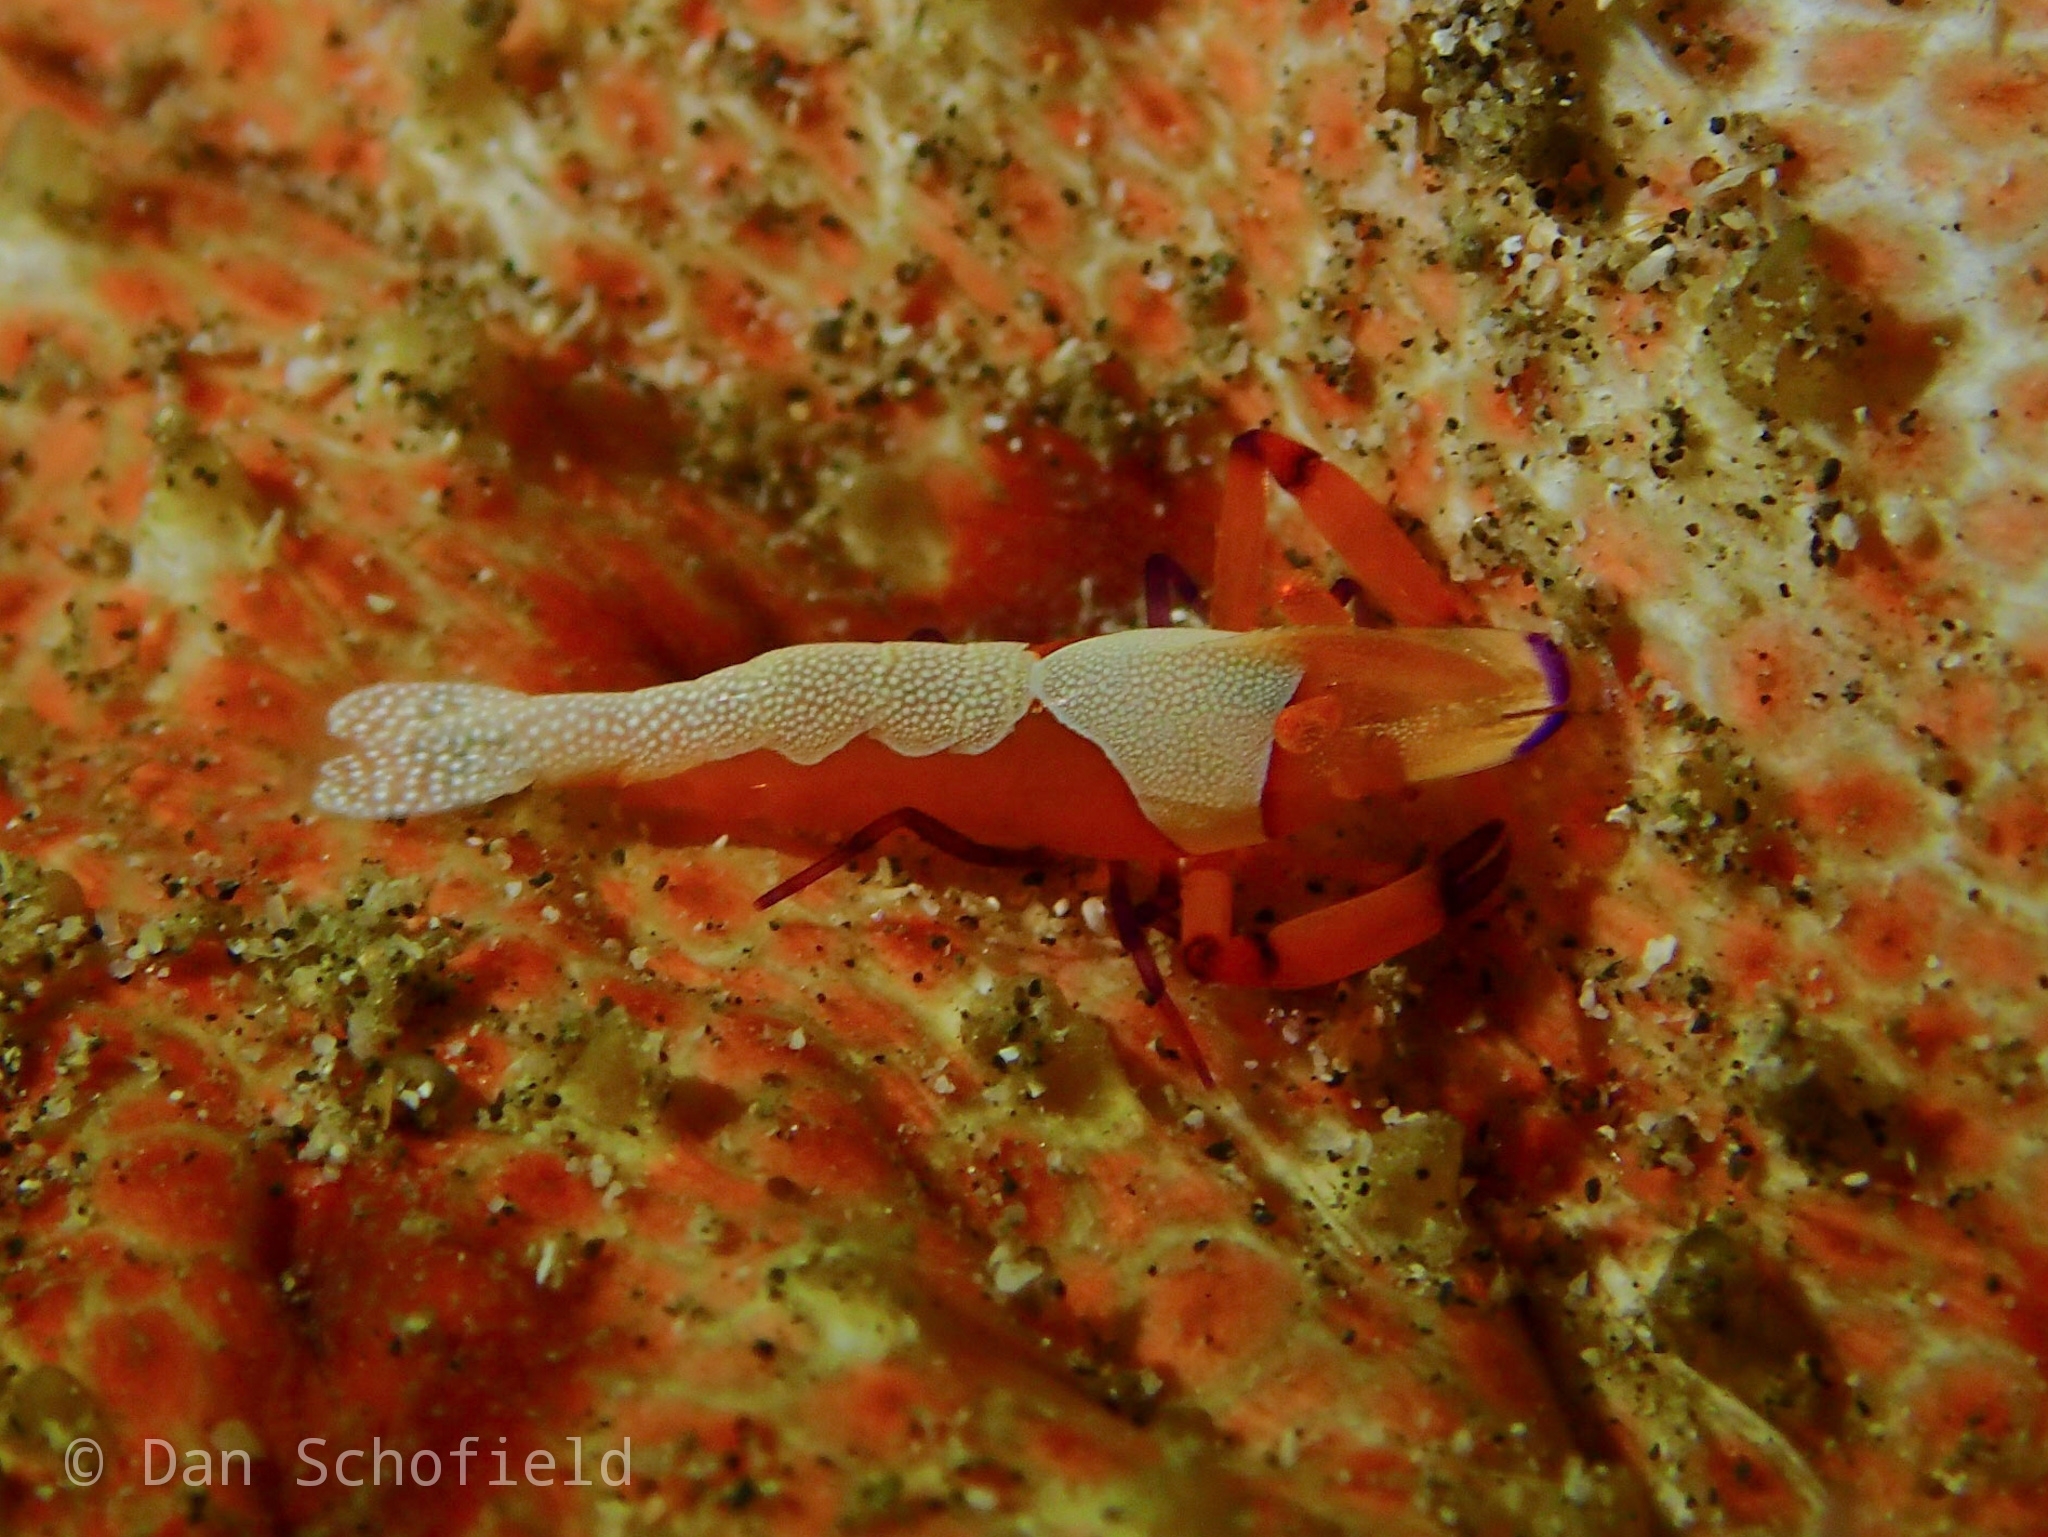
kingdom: Animalia
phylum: Arthropoda
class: Malacostraca
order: Decapoda
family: Palaemonidae
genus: Periclimenes
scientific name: Periclimenes rex
